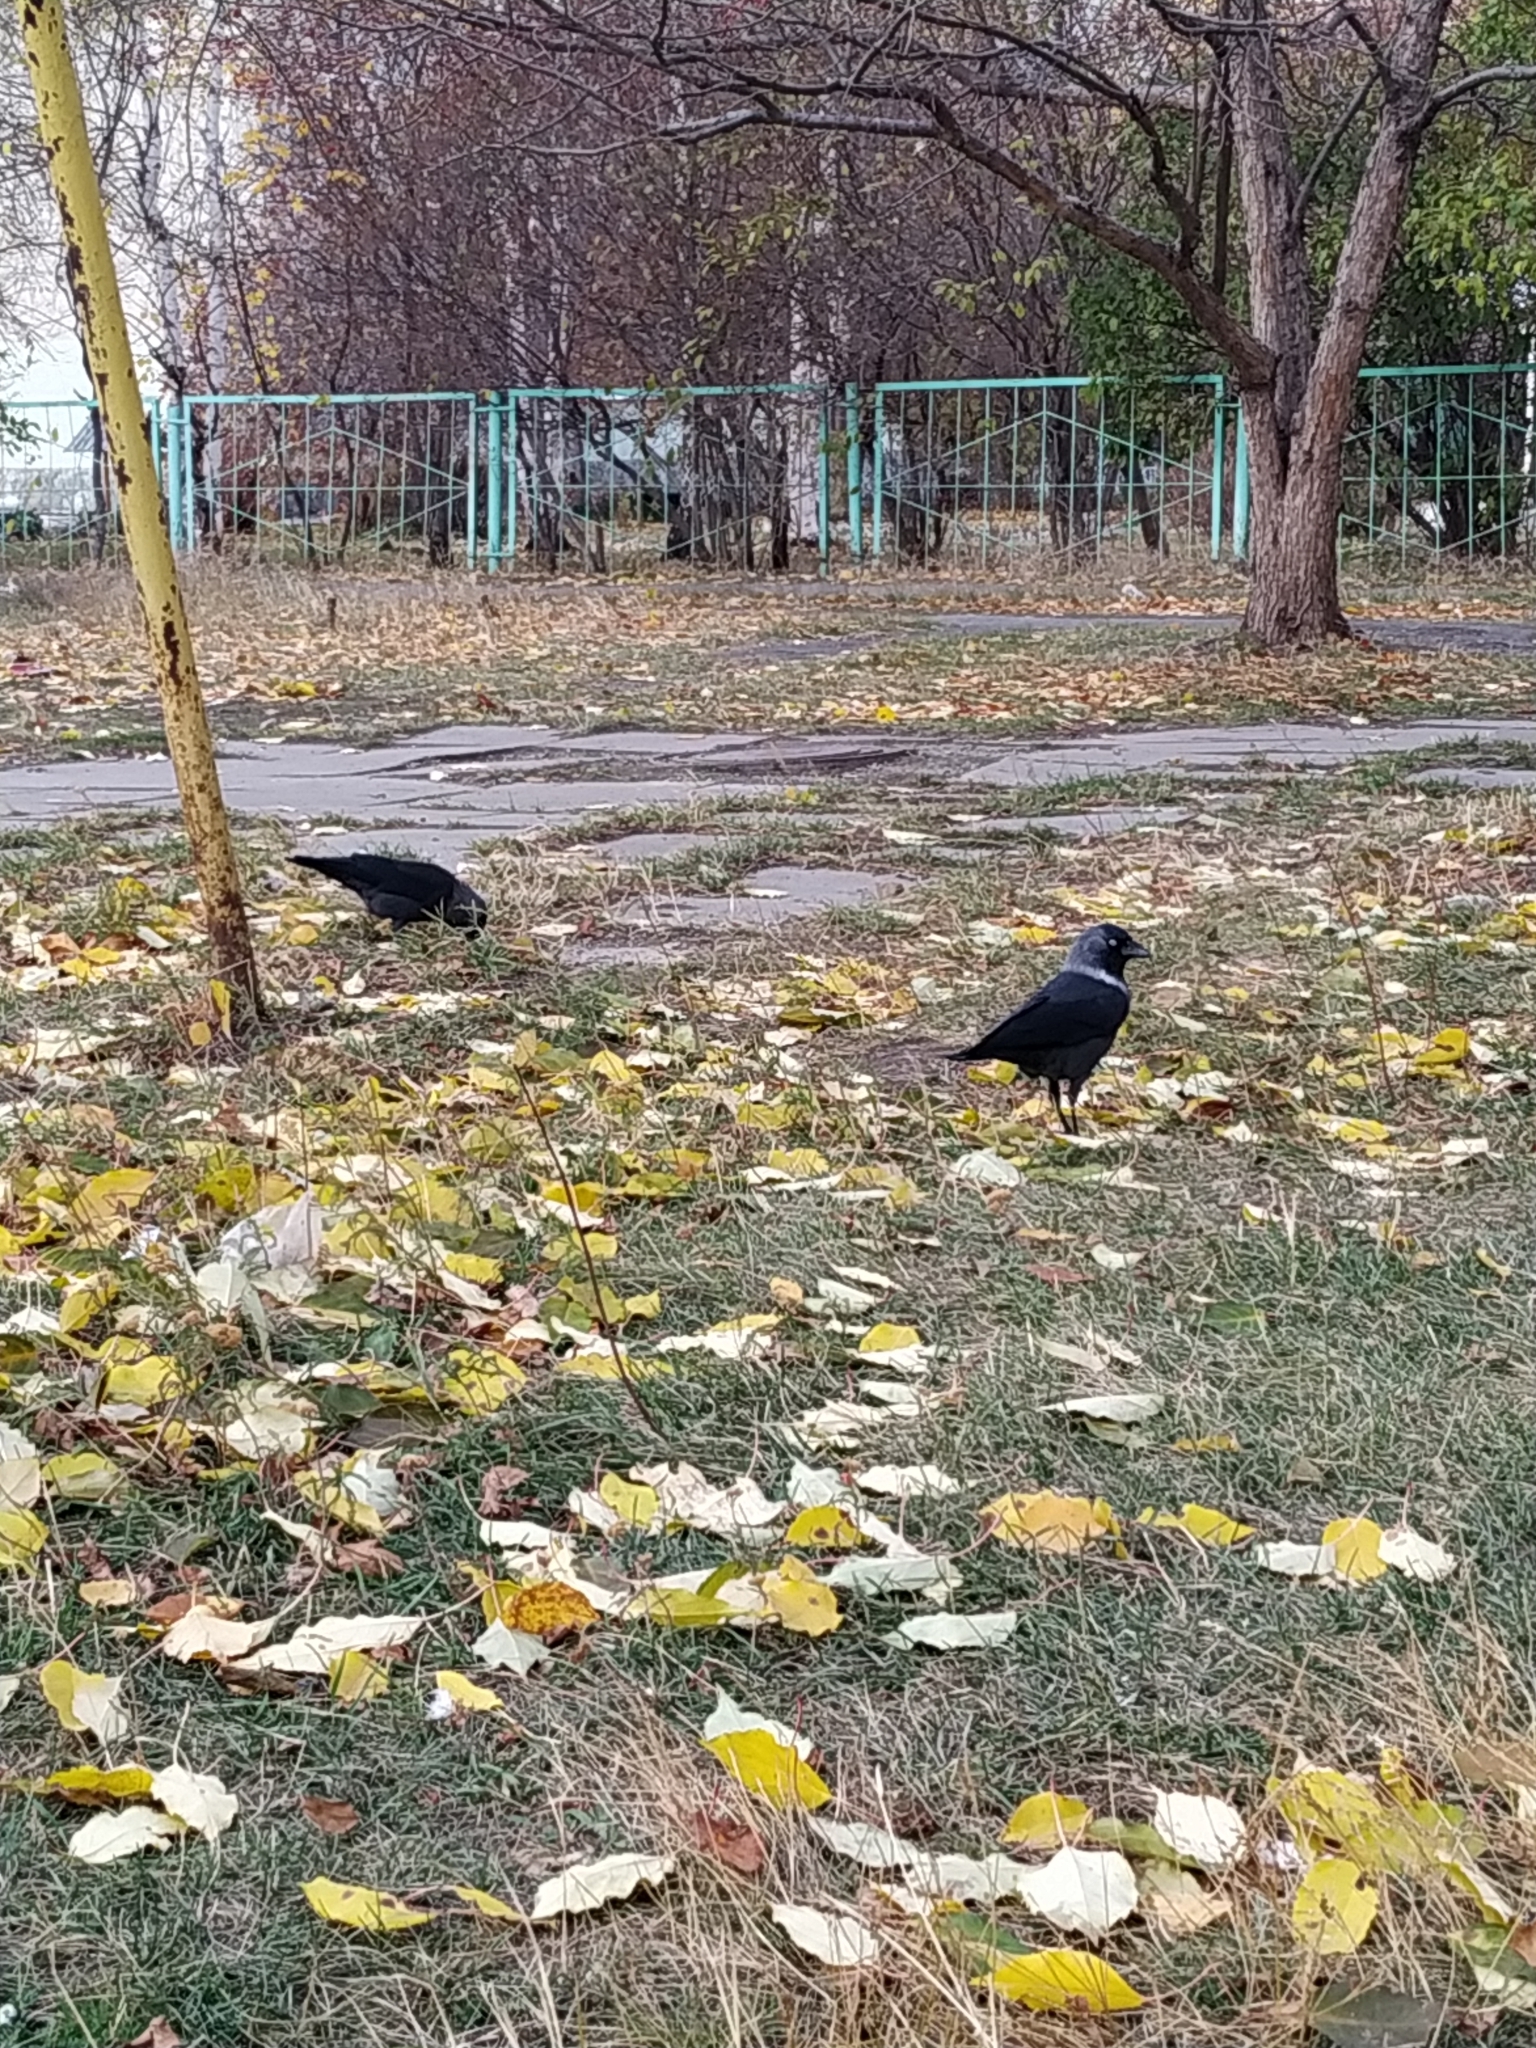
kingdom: Animalia
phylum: Chordata
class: Aves
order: Passeriformes
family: Corvidae
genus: Coloeus
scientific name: Coloeus monedula
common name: Western jackdaw
